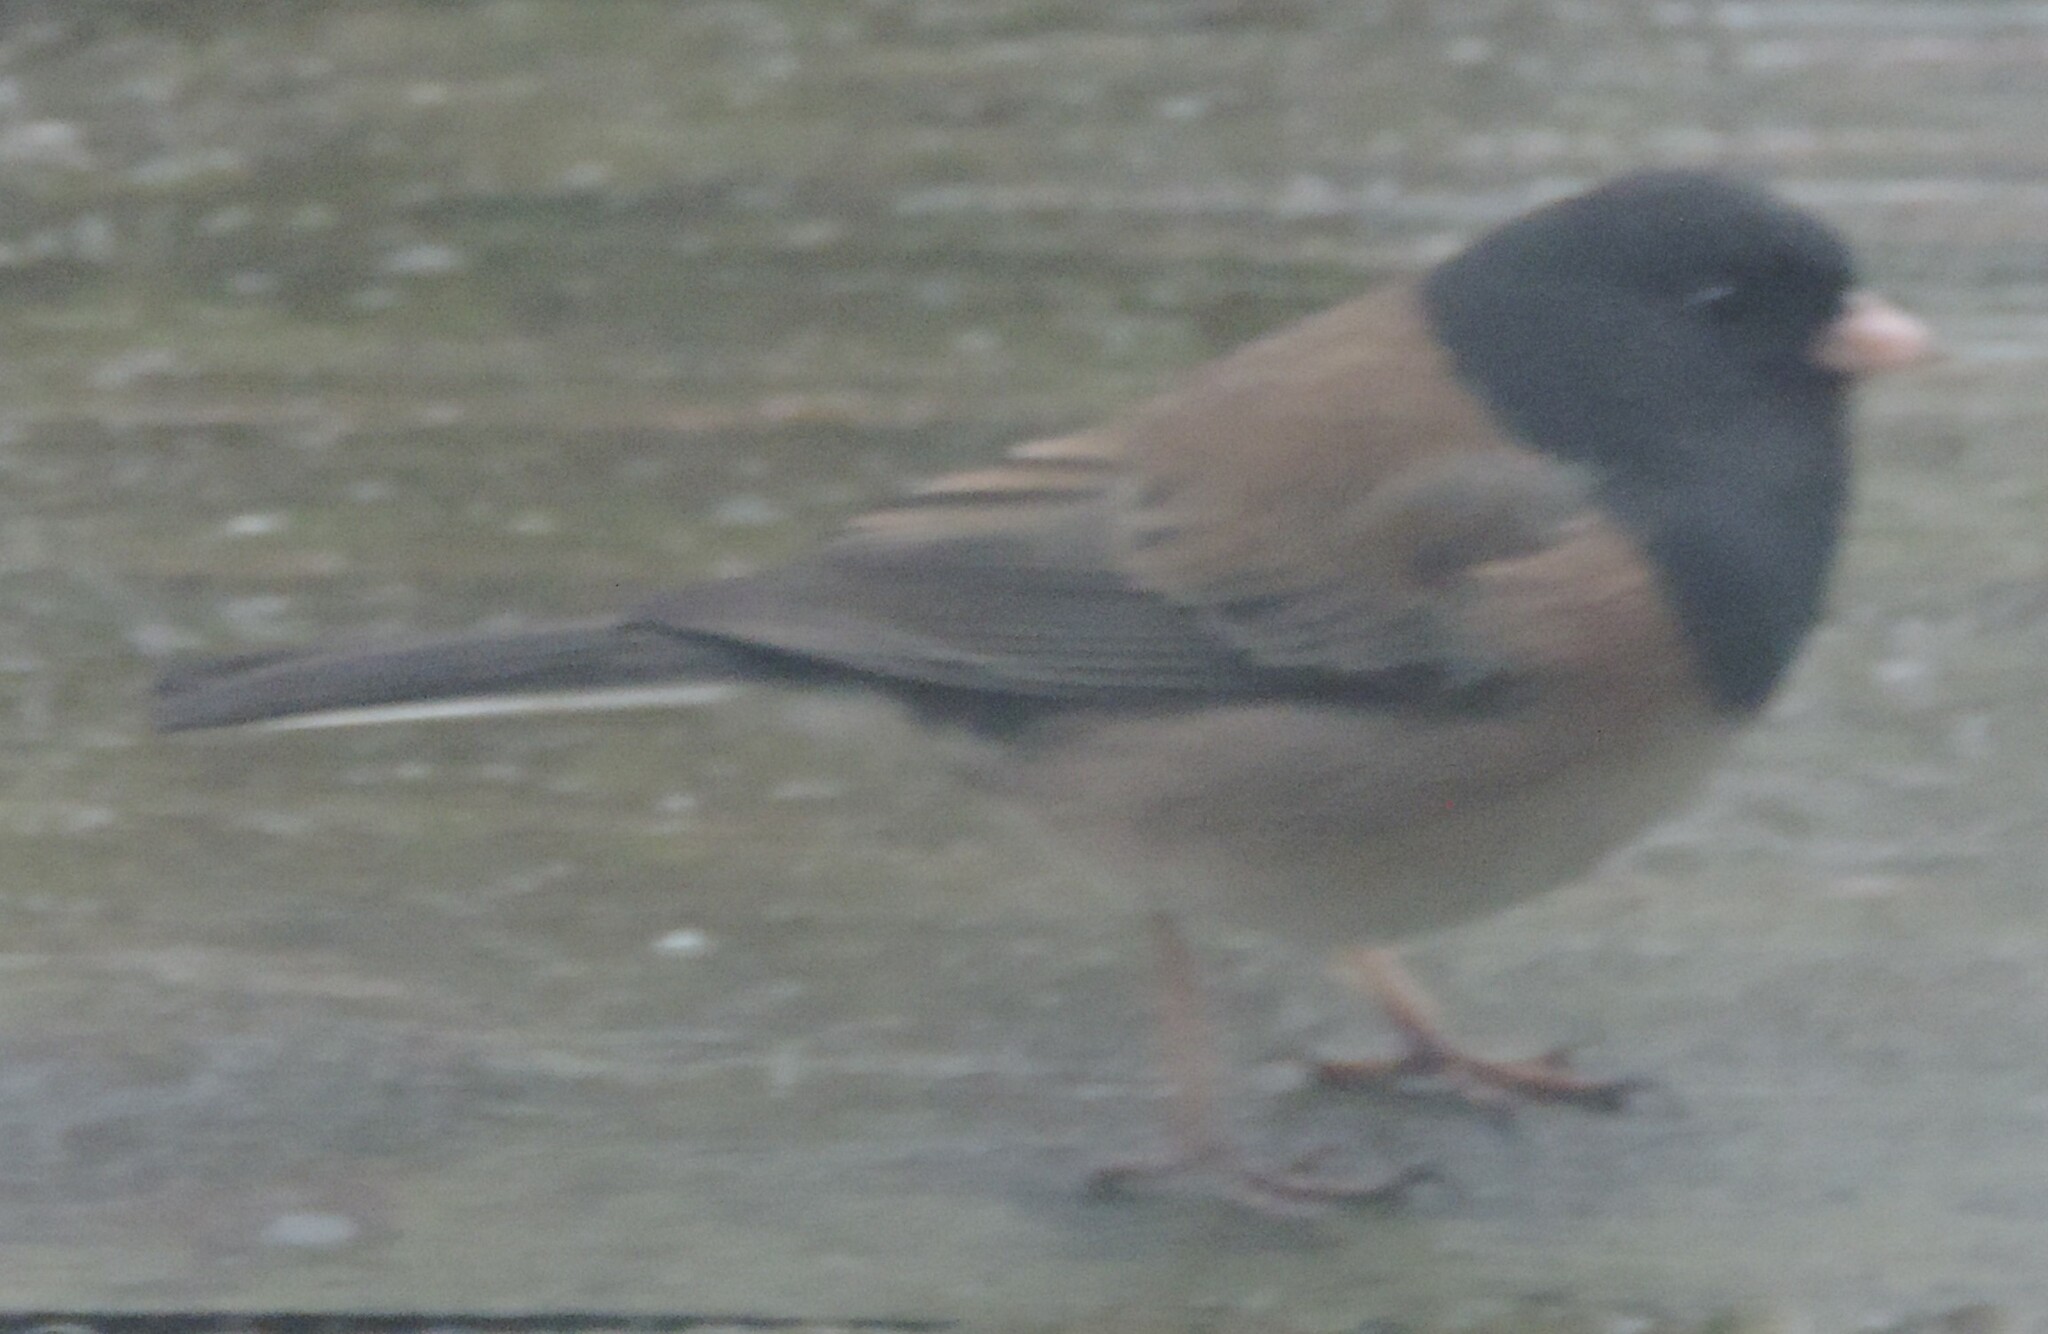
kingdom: Animalia
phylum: Chordata
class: Aves
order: Passeriformes
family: Passerellidae
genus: Junco
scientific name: Junco hyemalis
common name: Dark-eyed junco
